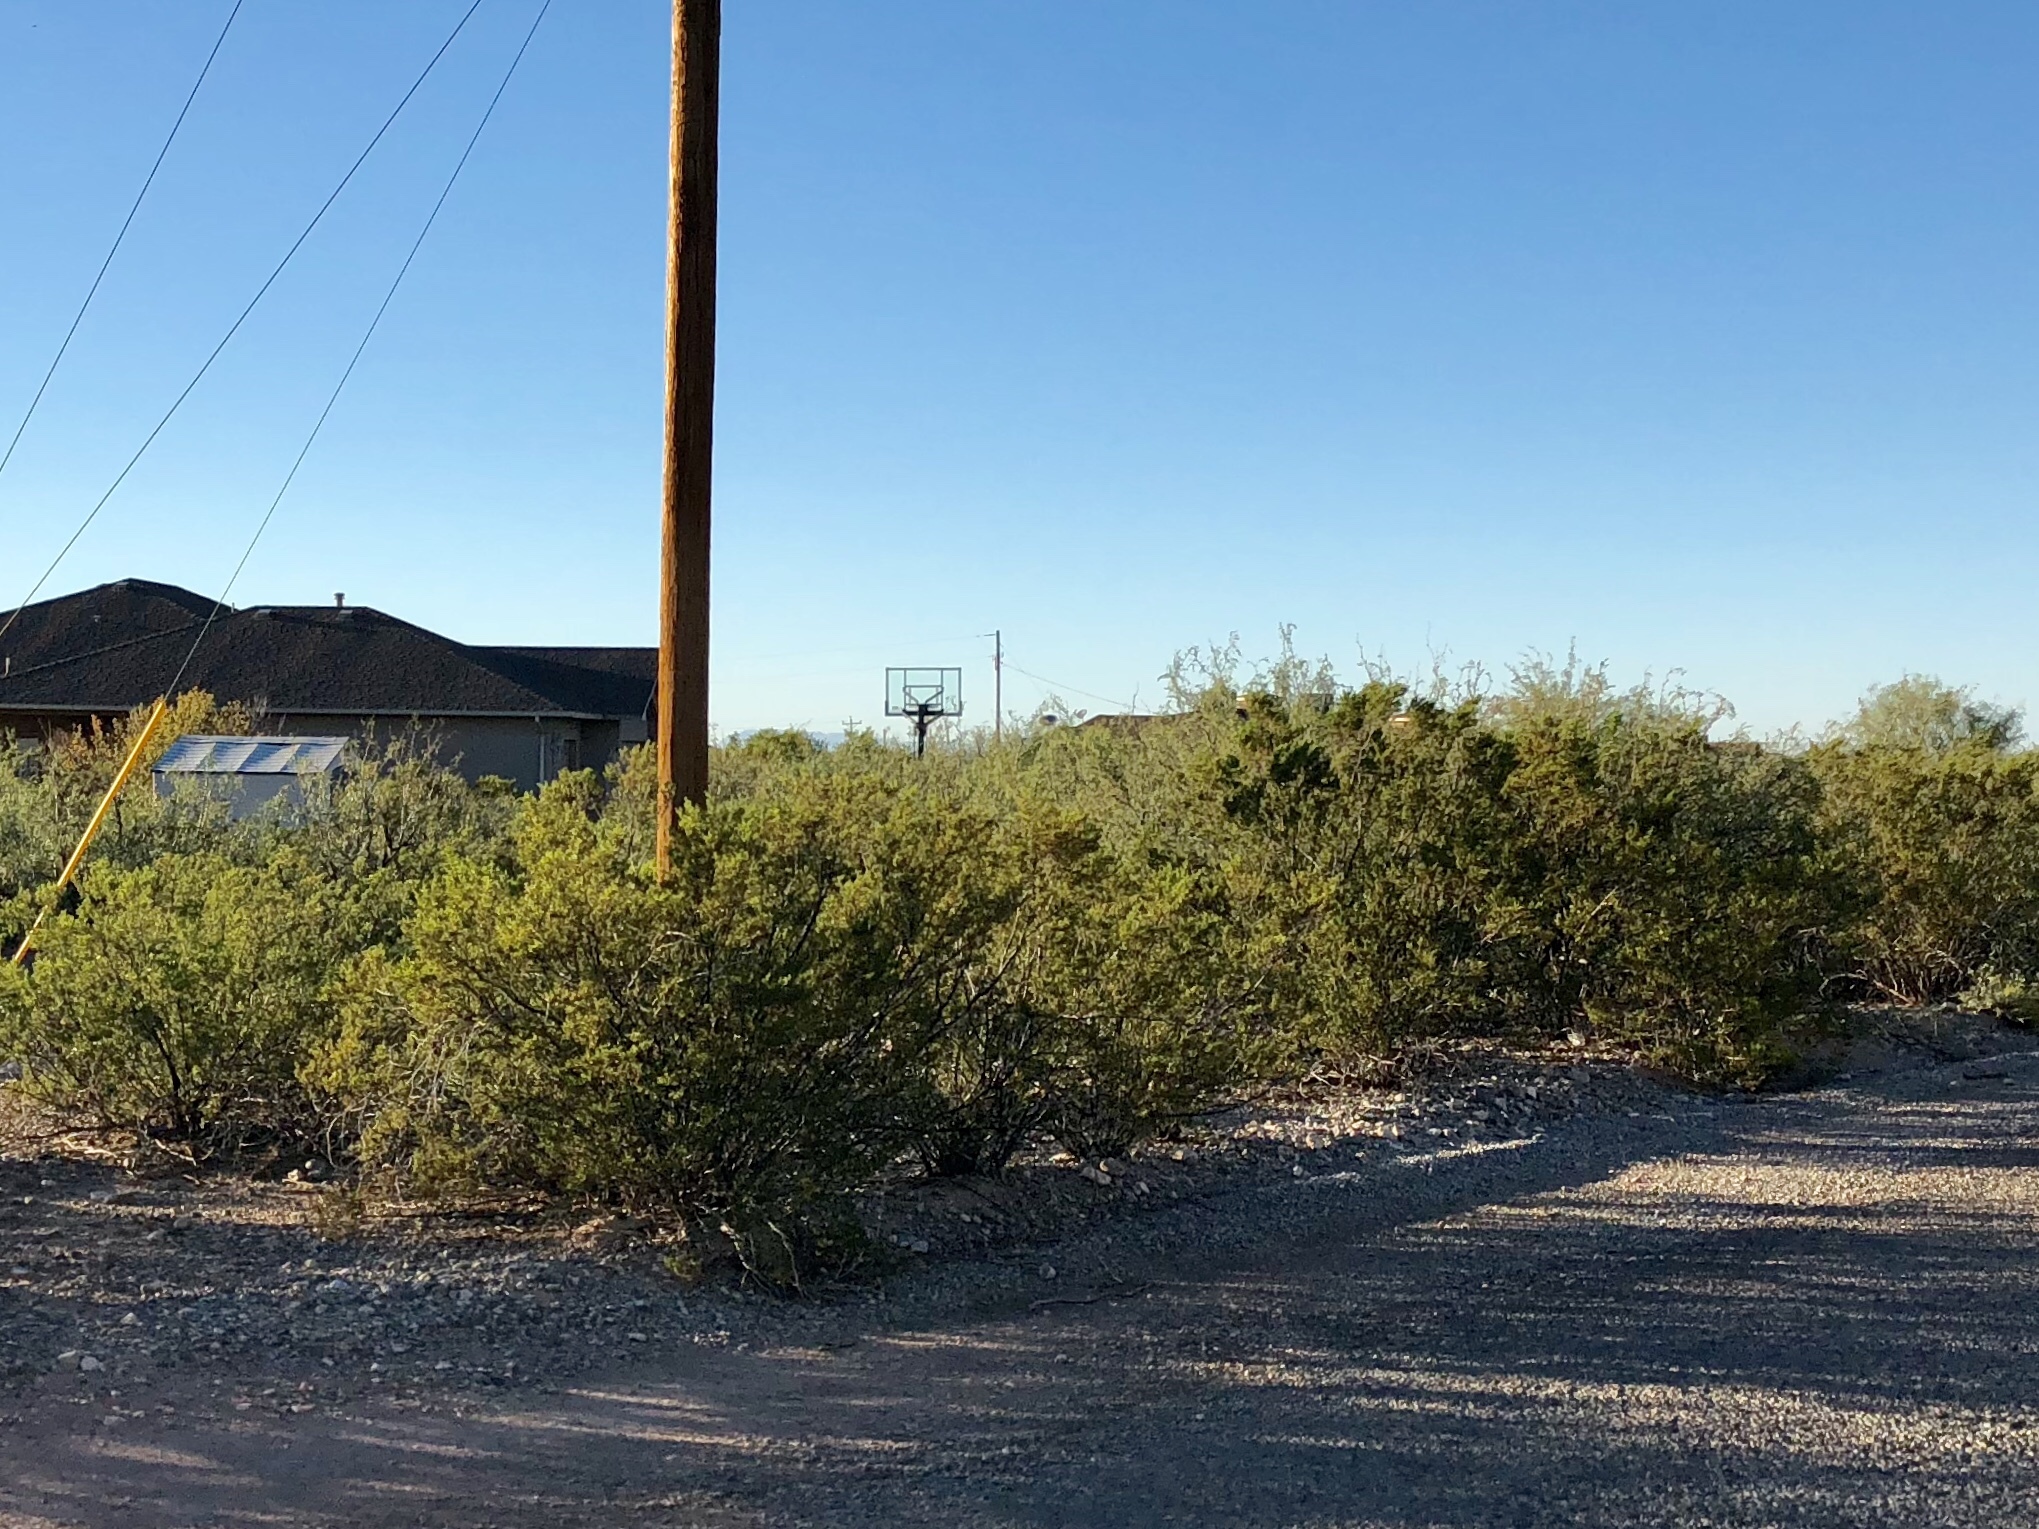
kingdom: Plantae
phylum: Tracheophyta
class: Magnoliopsida
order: Zygophyllales
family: Zygophyllaceae
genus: Larrea
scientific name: Larrea tridentata
